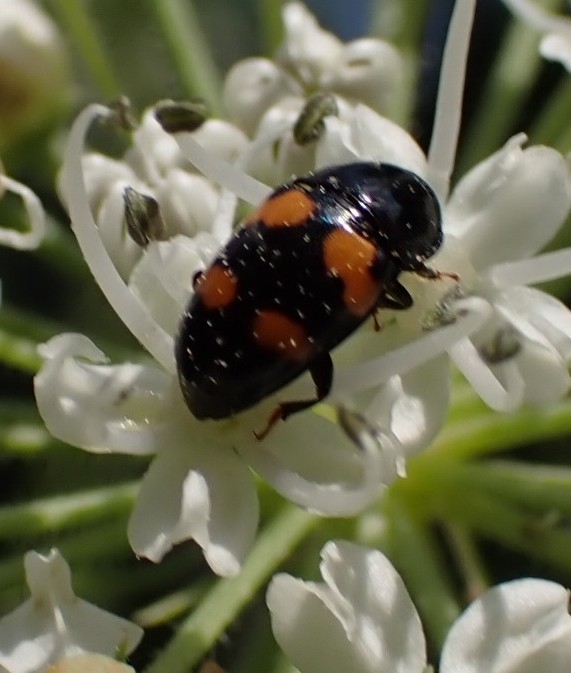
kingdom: Animalia
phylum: Arthropoda
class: Insecta
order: Coleoptera
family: Nitidulidae
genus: Glischrochilus
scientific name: Glischrochilus grandis
